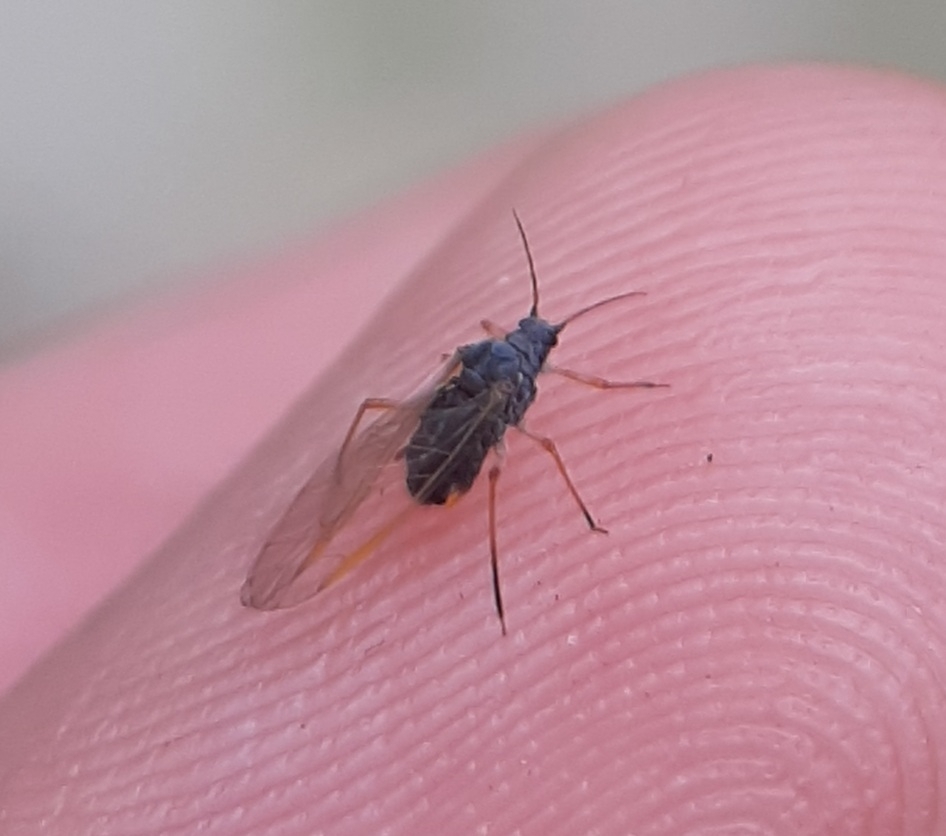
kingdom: Animalia
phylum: Arthropoda
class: Insecta
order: Hemiptera
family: Aphididae
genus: Pterocomma
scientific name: Pterocomma smithiae
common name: Black willow aphid
